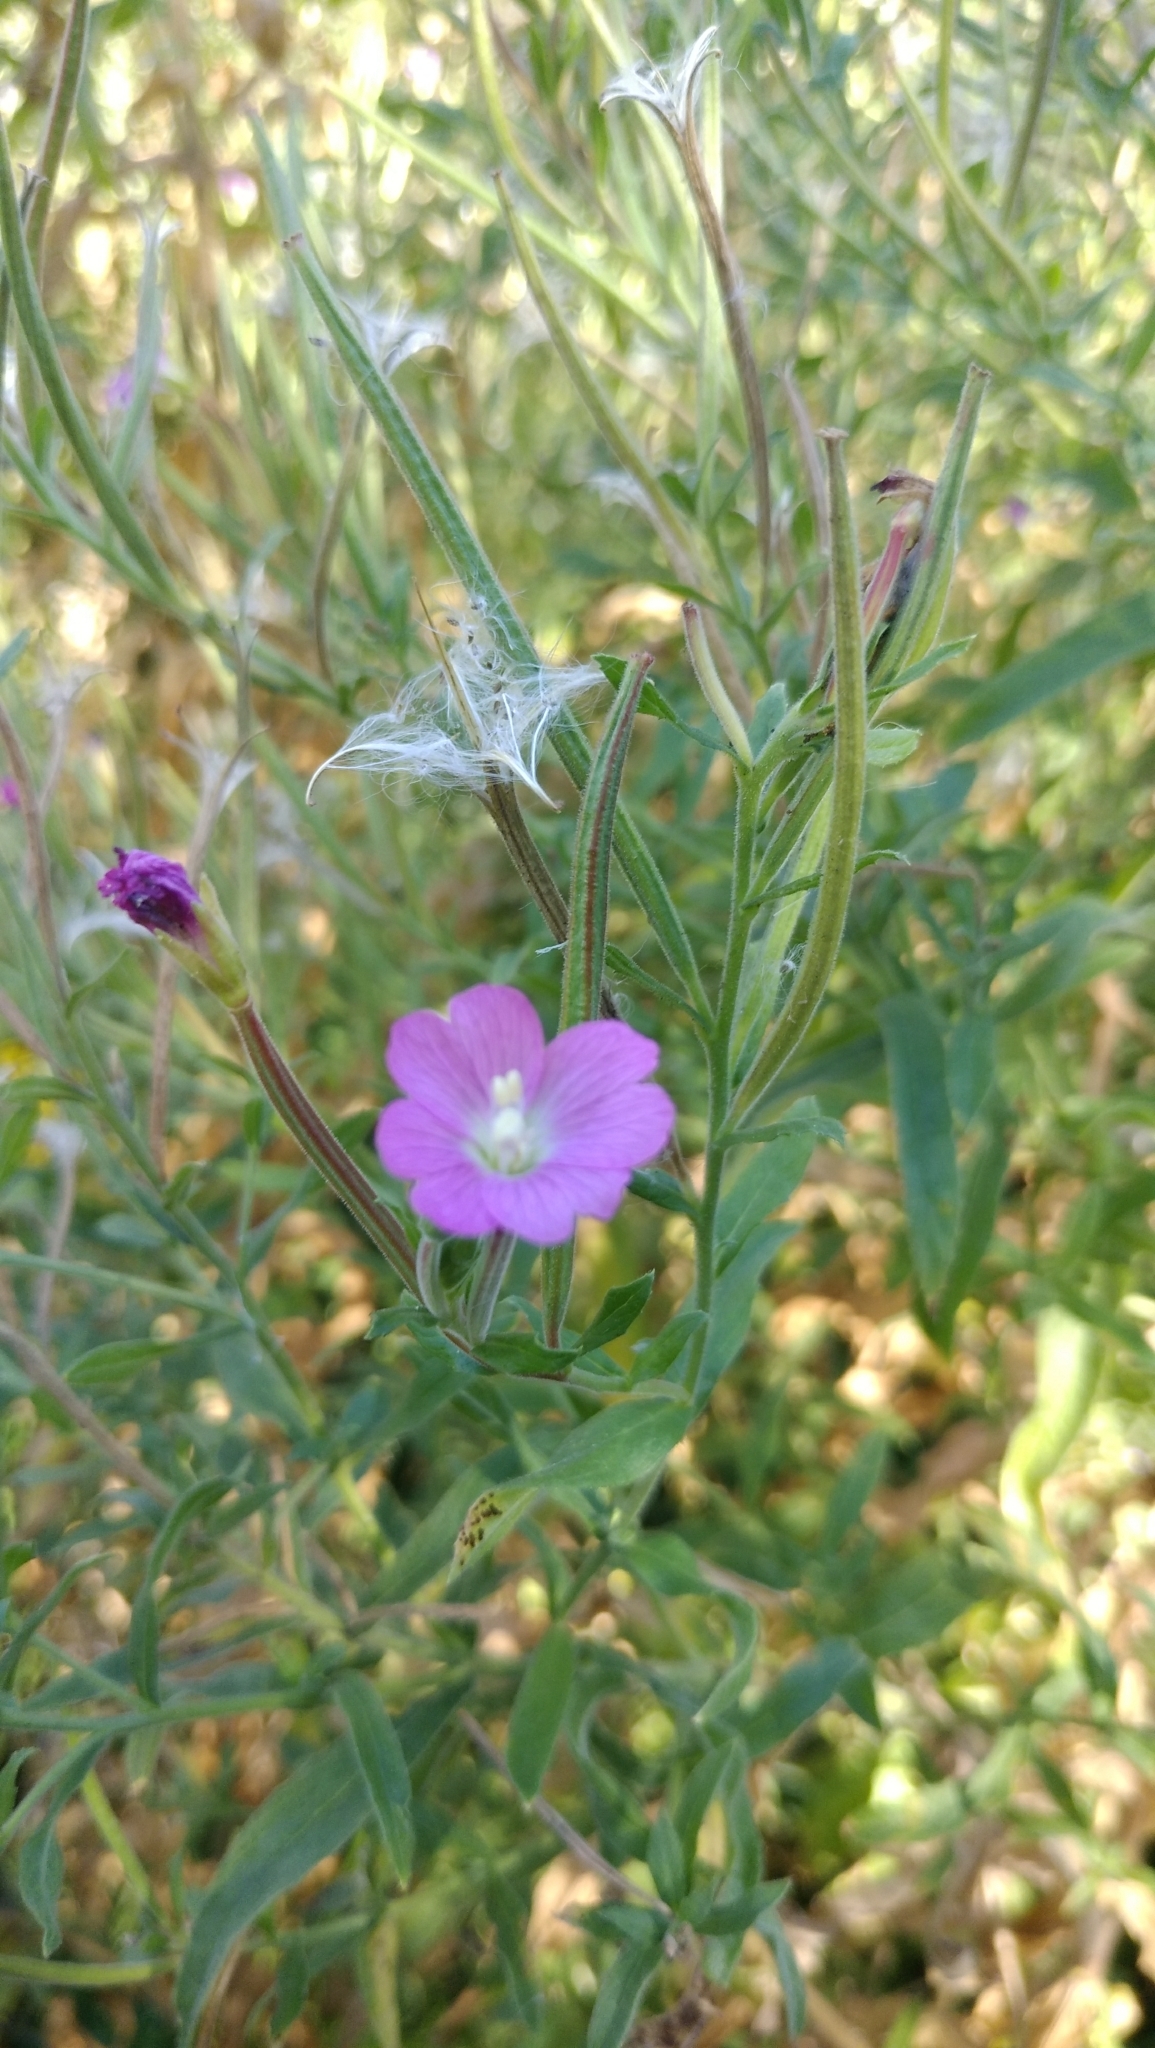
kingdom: Plantae
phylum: Tracheophyta
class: Magnoliopsida
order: Myrtales
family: Onagraceae
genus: Epilobium
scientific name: Epilobium hirsutum
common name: Great willowherb
